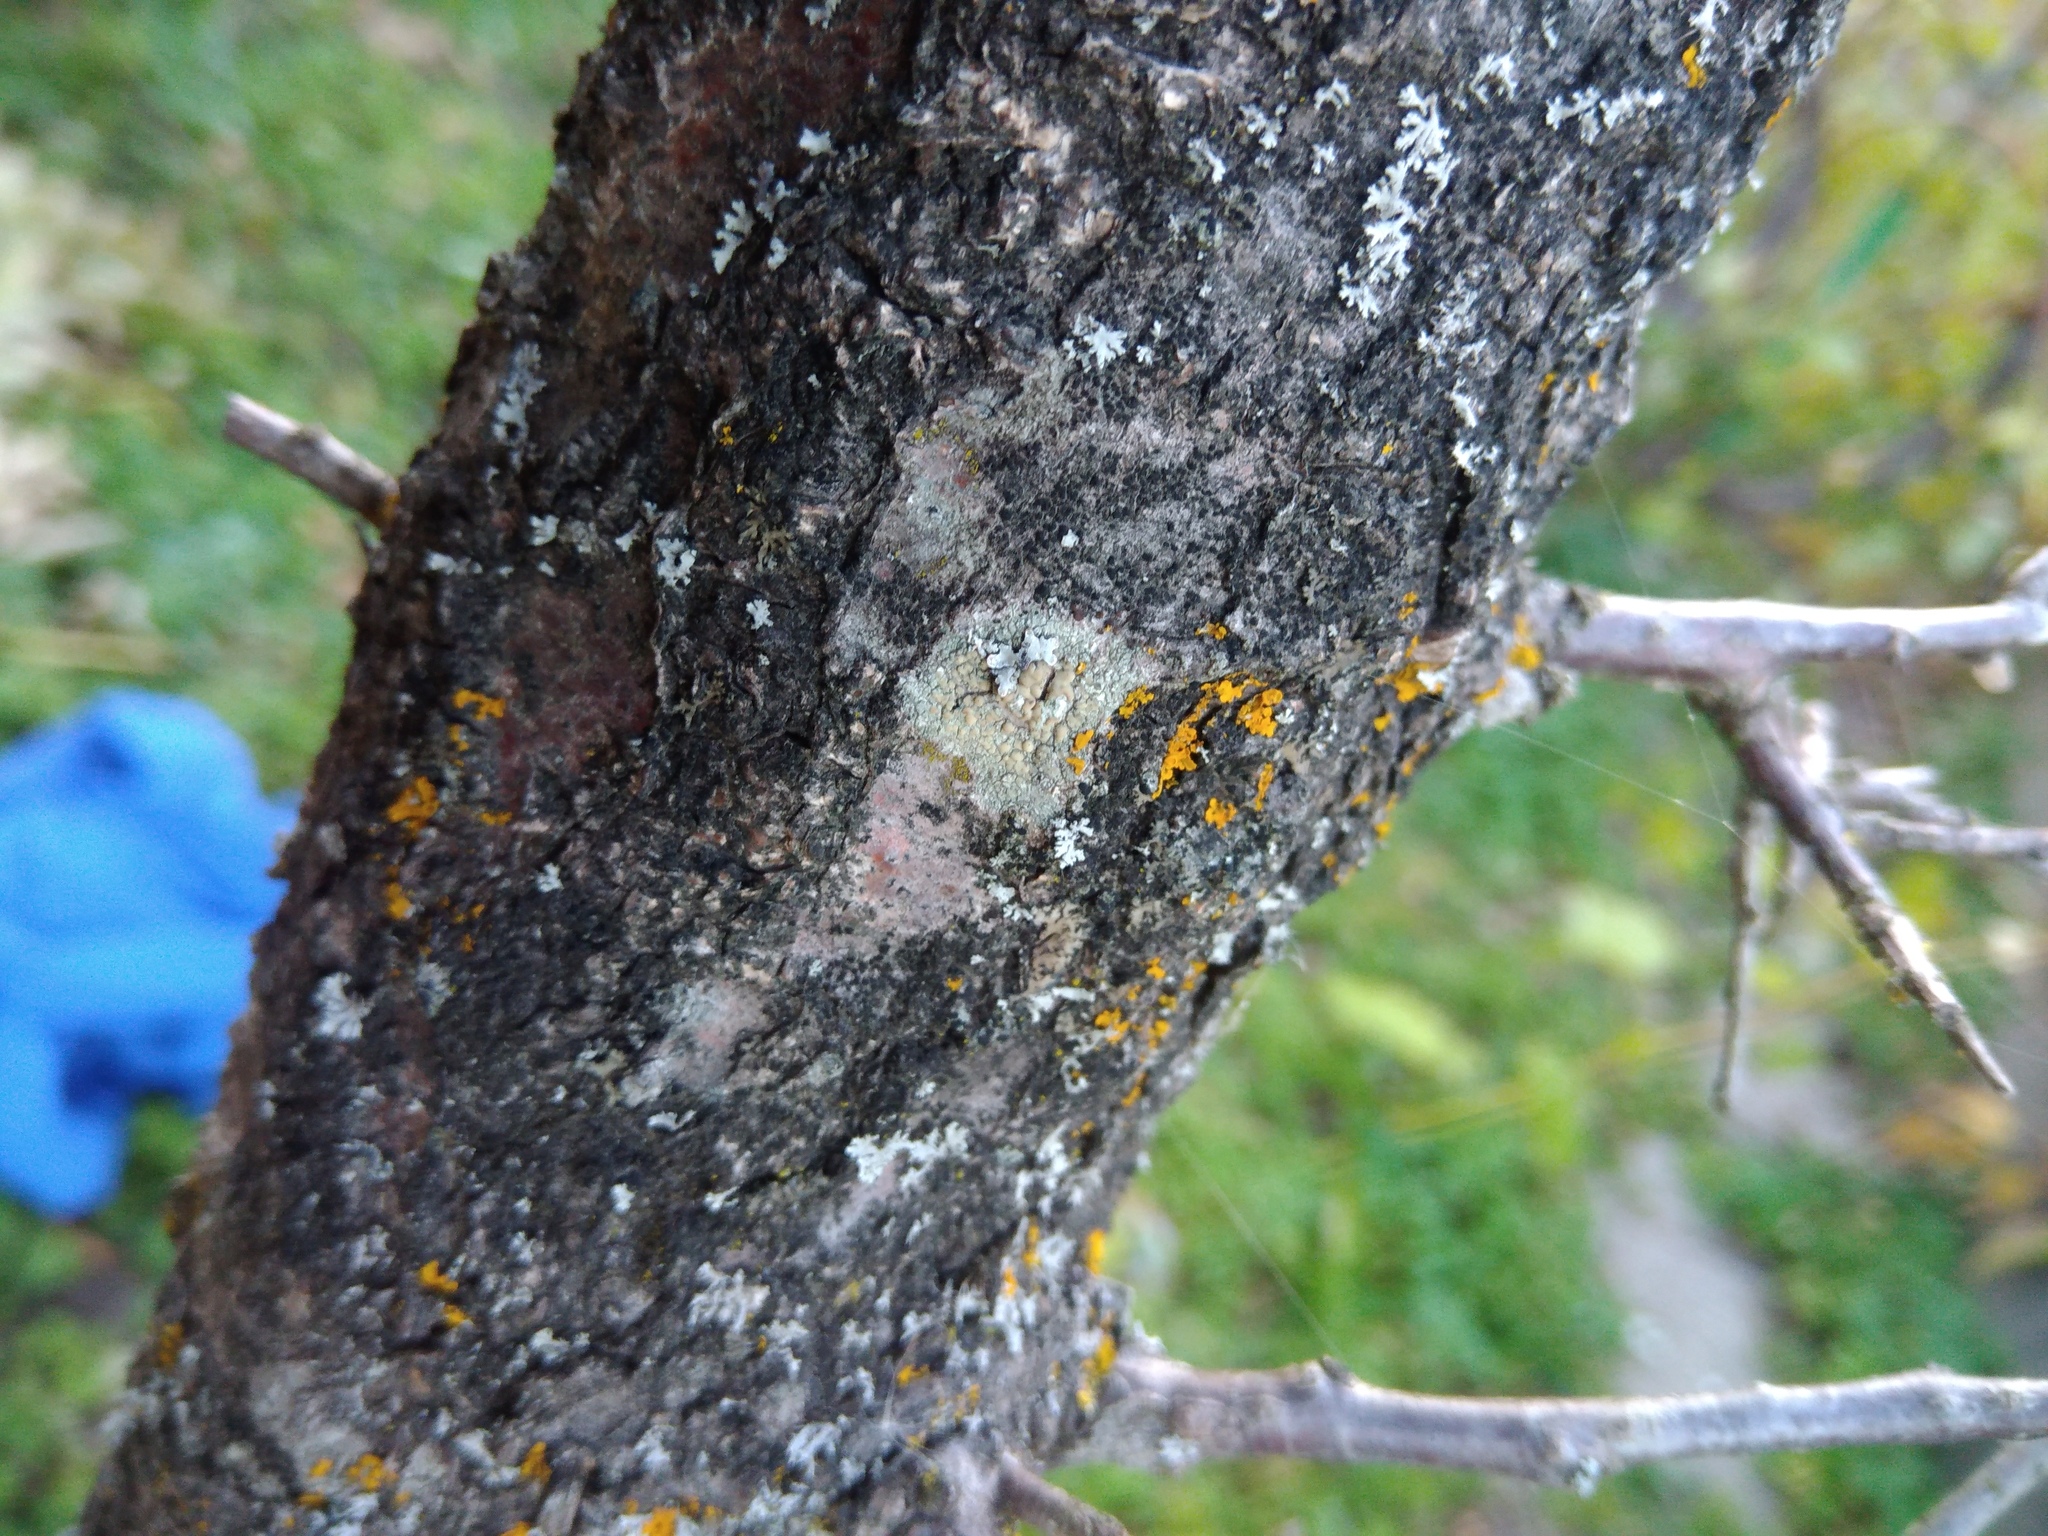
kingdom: Fungi
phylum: Ascomycota
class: Lecanoromycetes
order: Lecanorales
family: Lecanoraceae
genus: Lecanora
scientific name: Lecanora symmicta
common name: Fused rim lichen
